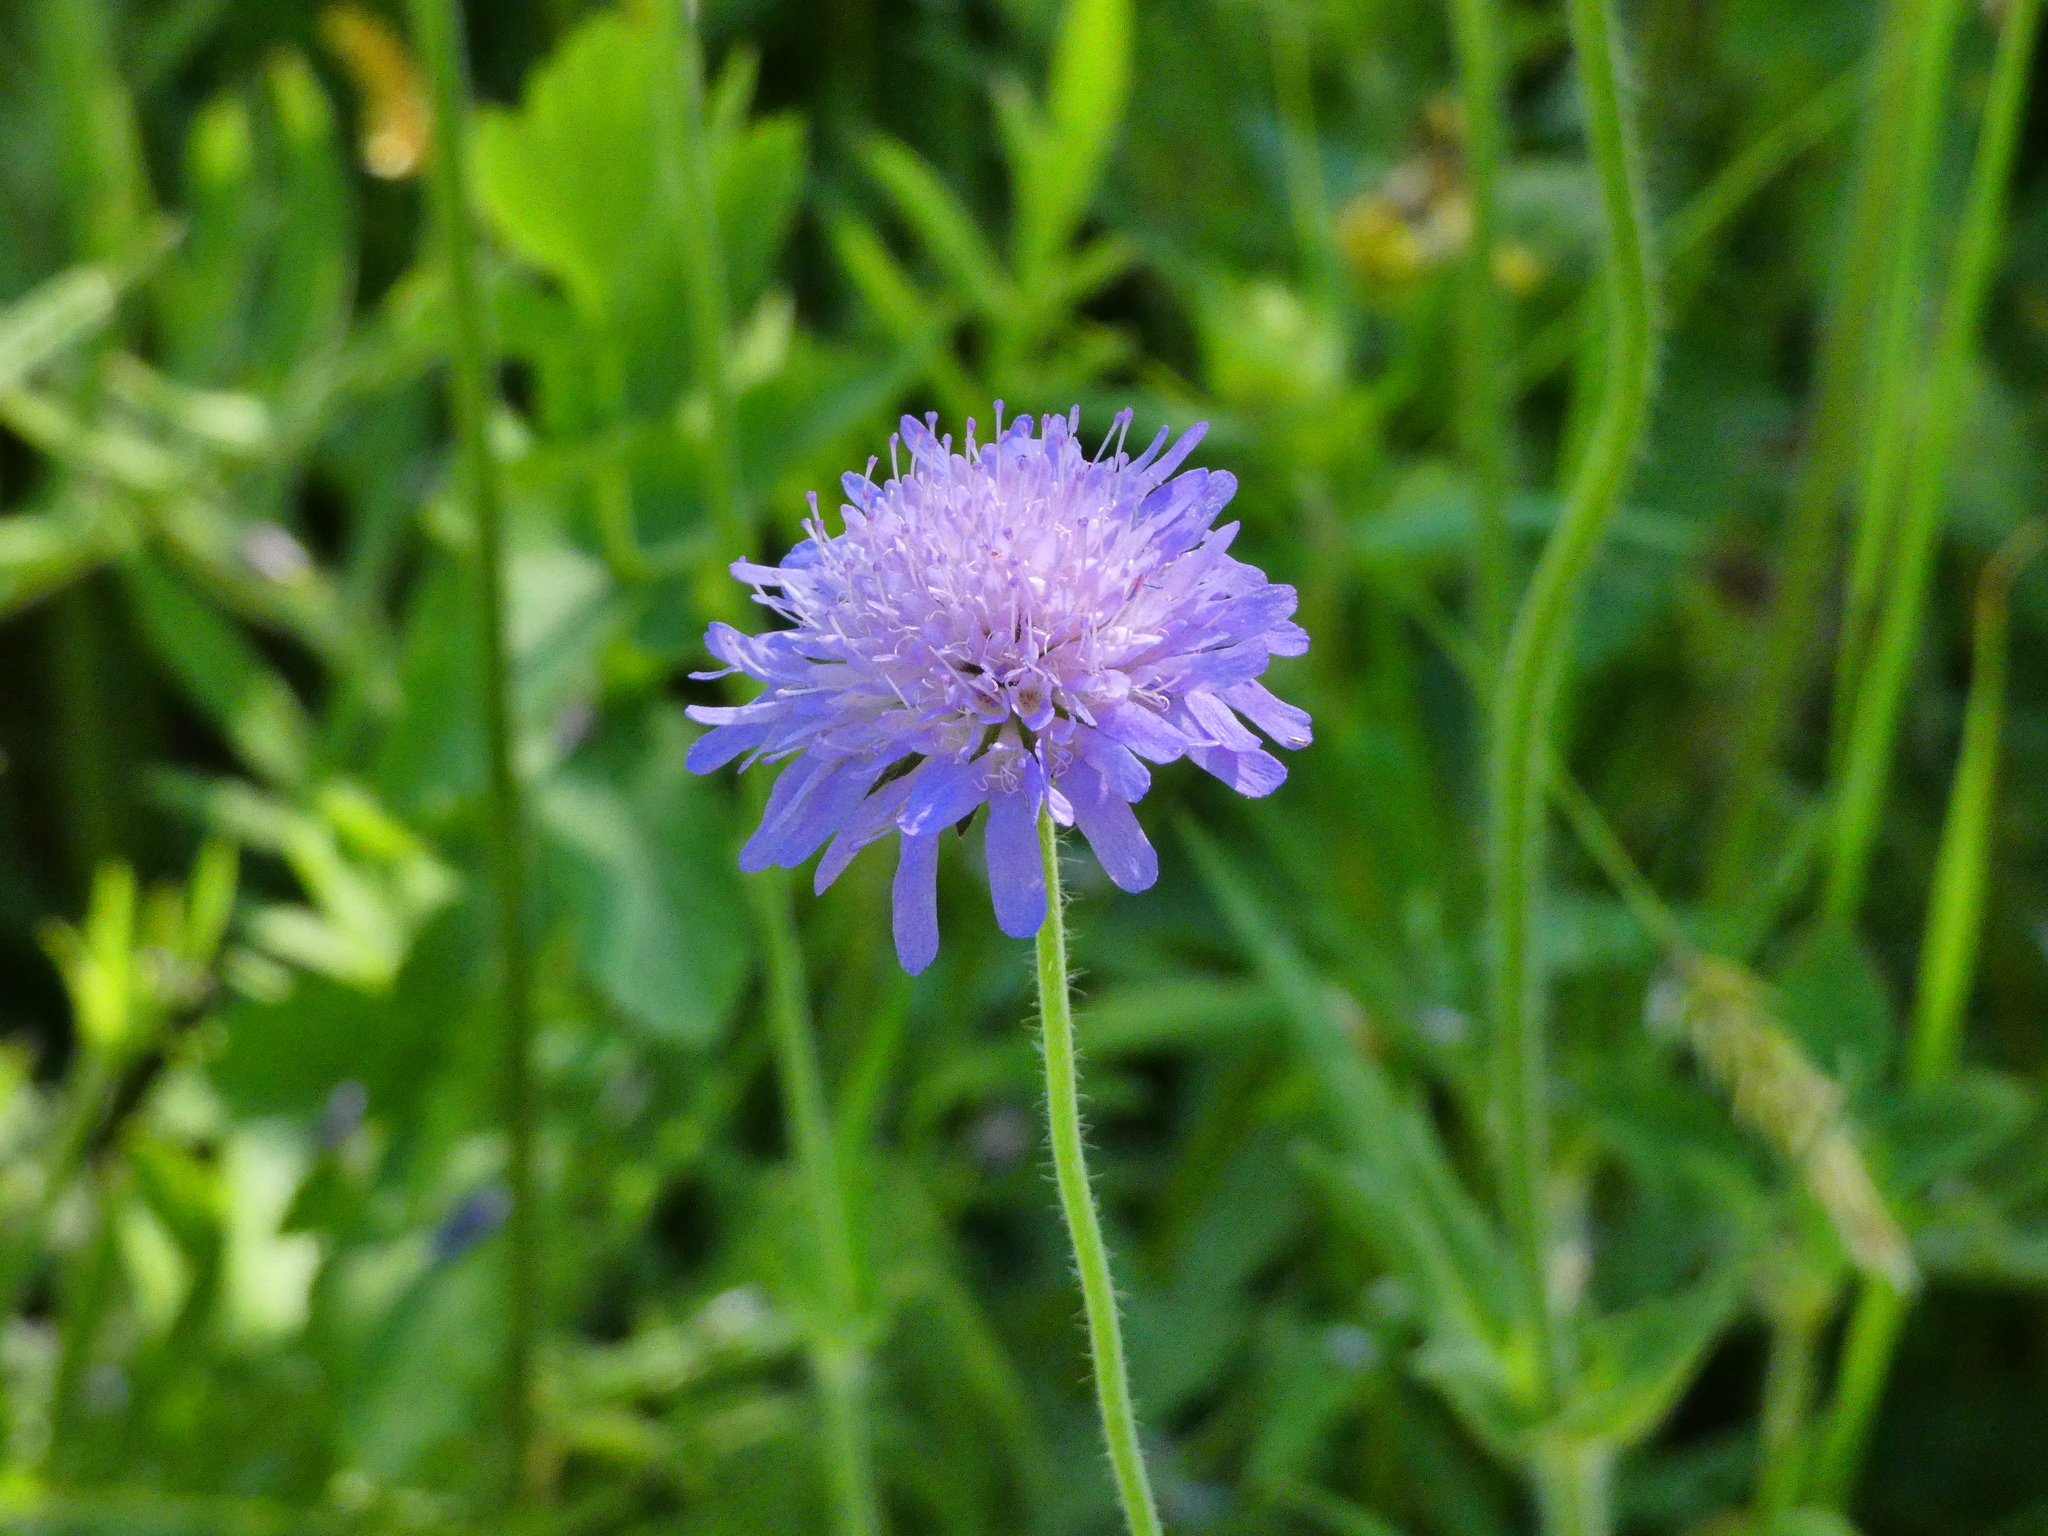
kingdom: Plantae
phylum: Tracheophyta
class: Magnoliopsida
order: Dipsacales
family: Caprifoliaceae
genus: Knautia
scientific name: Knautia arvensis
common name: Field scabiosa
